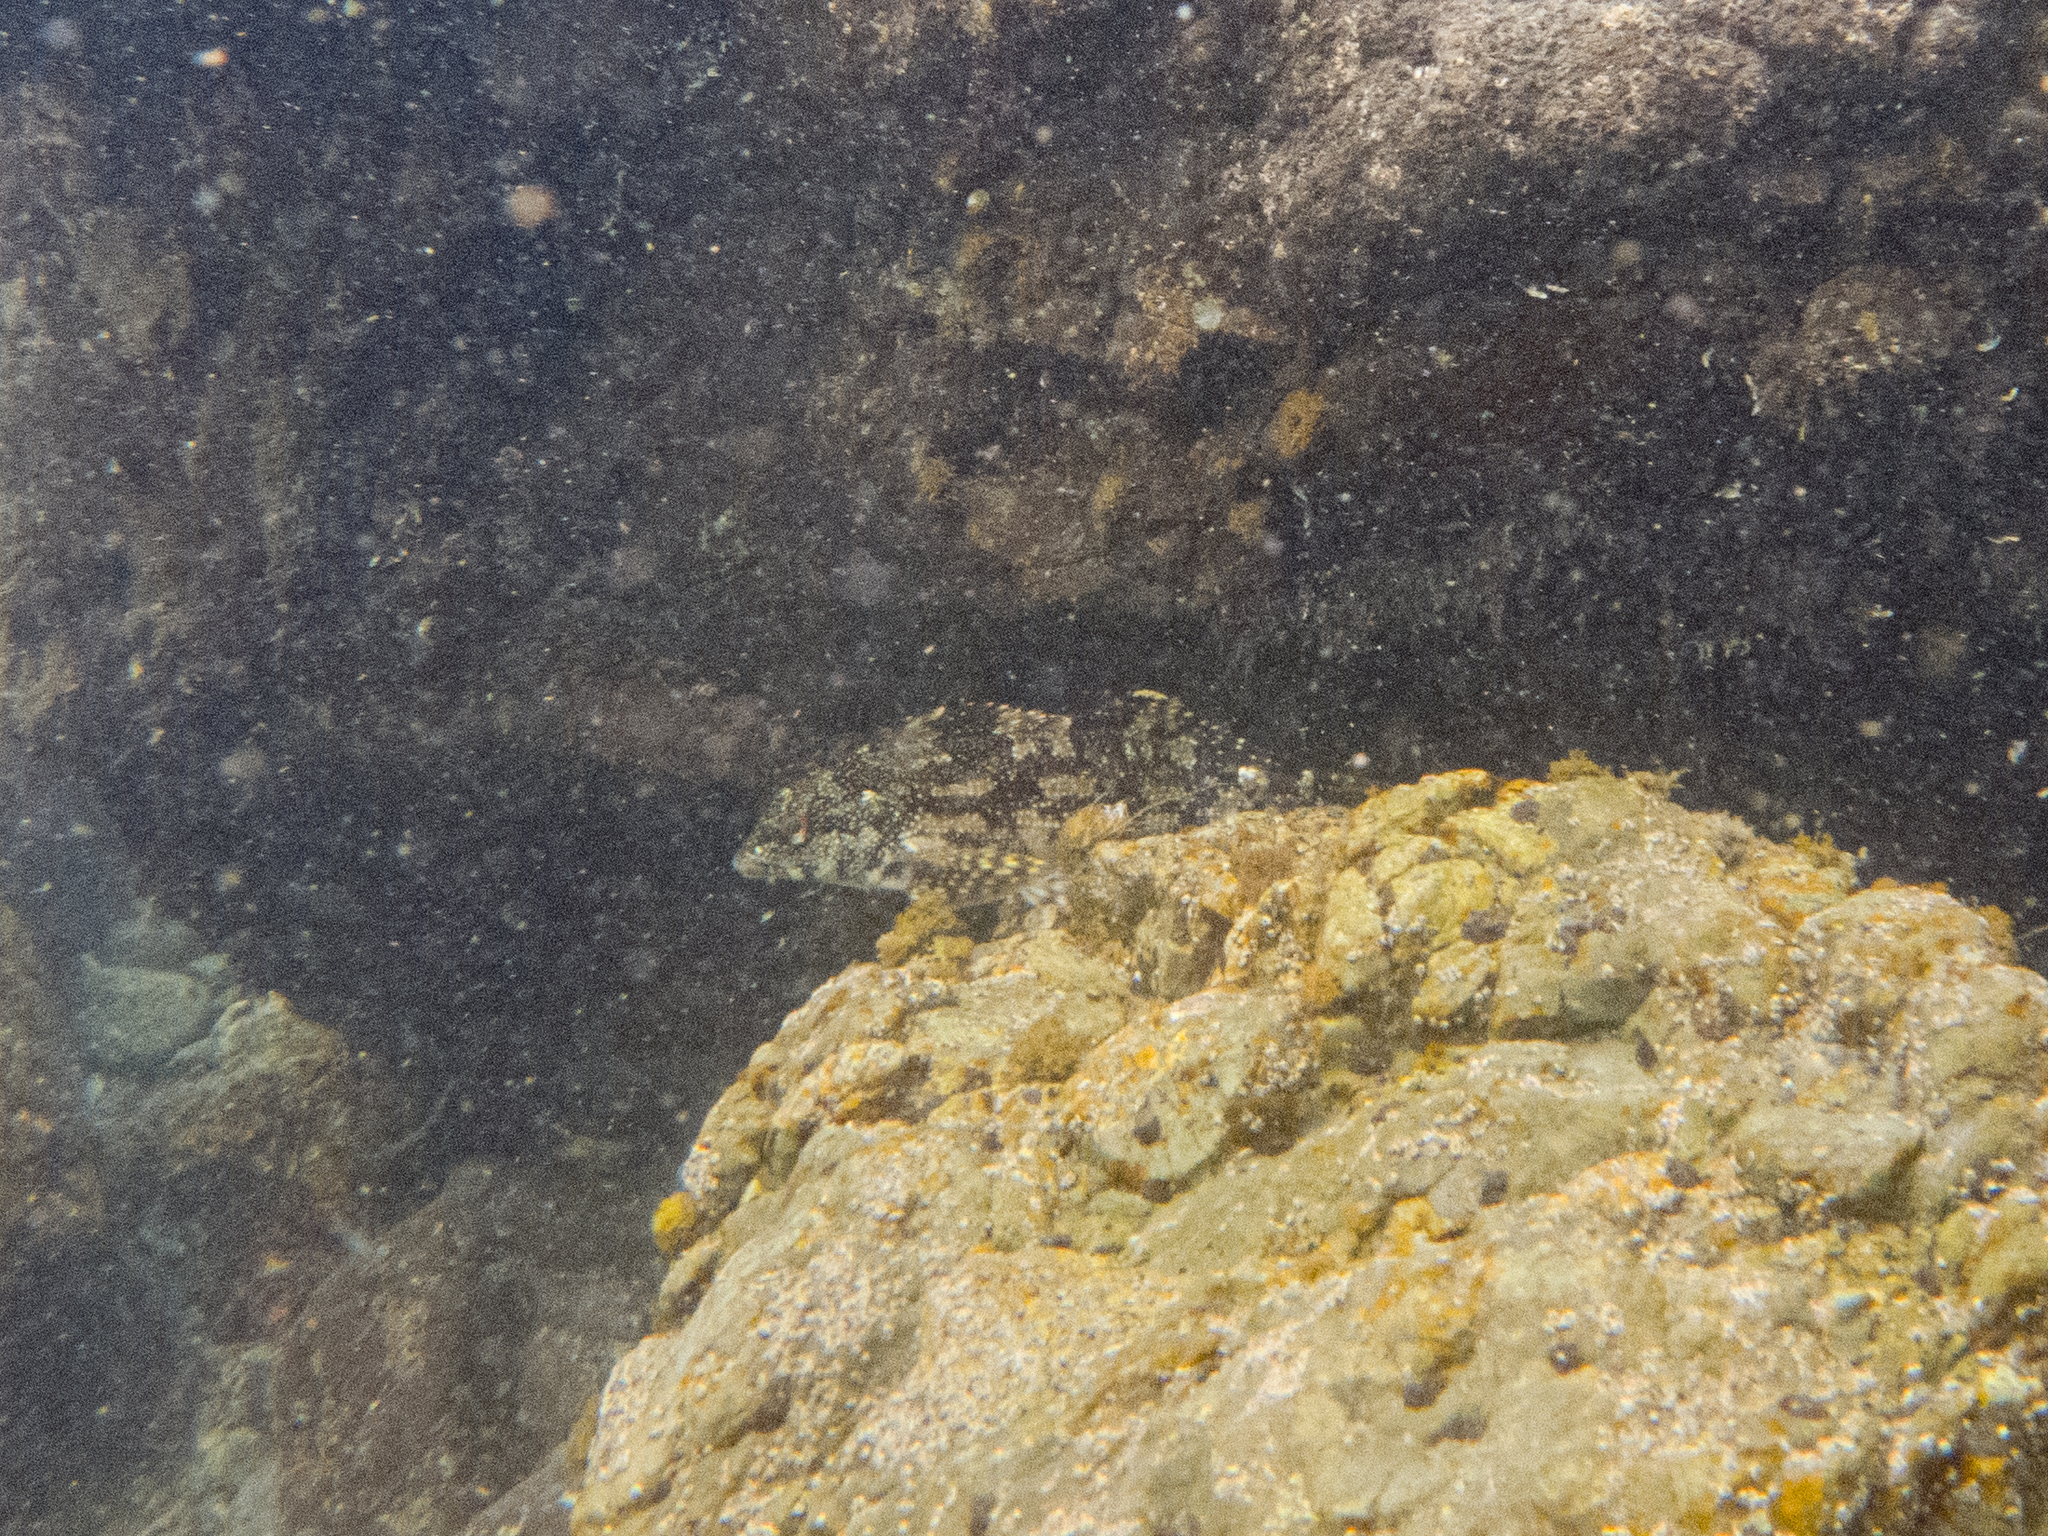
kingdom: Animalia
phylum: Chordata
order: Perciformes
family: Chironemidae
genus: Chironemus
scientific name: Chironemus marmoratus
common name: Kelpfish
